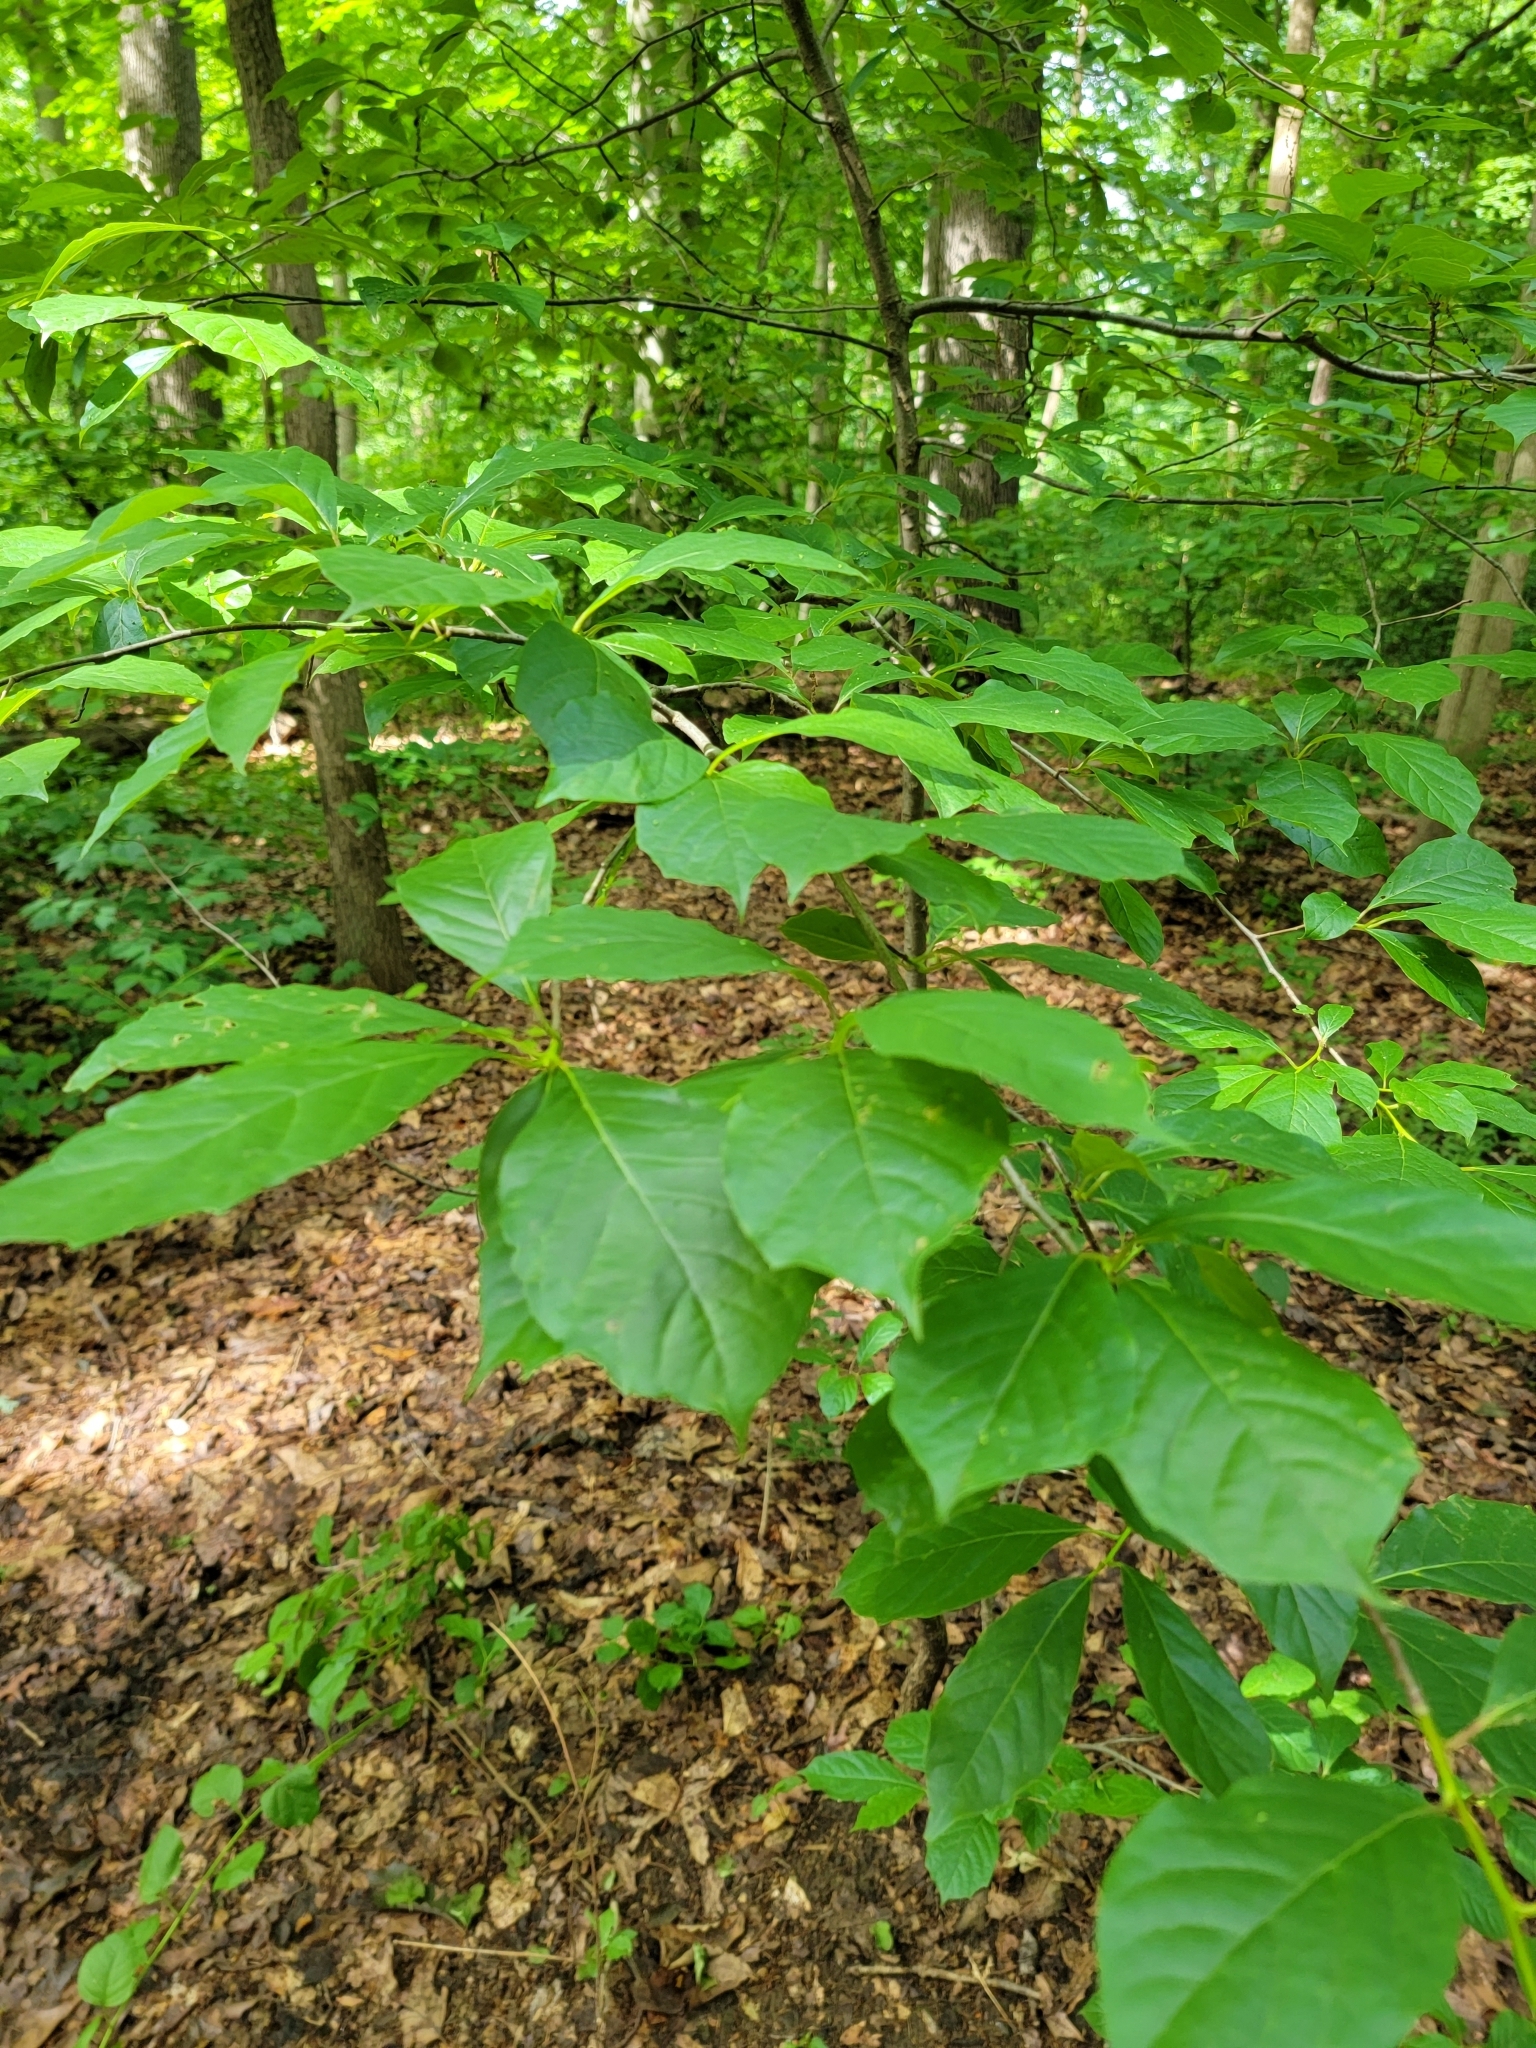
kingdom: Animalia
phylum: Arthropoda
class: Arachnida
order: Trombidiformes
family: Eriophyidae
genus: Aceria
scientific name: Aceria
